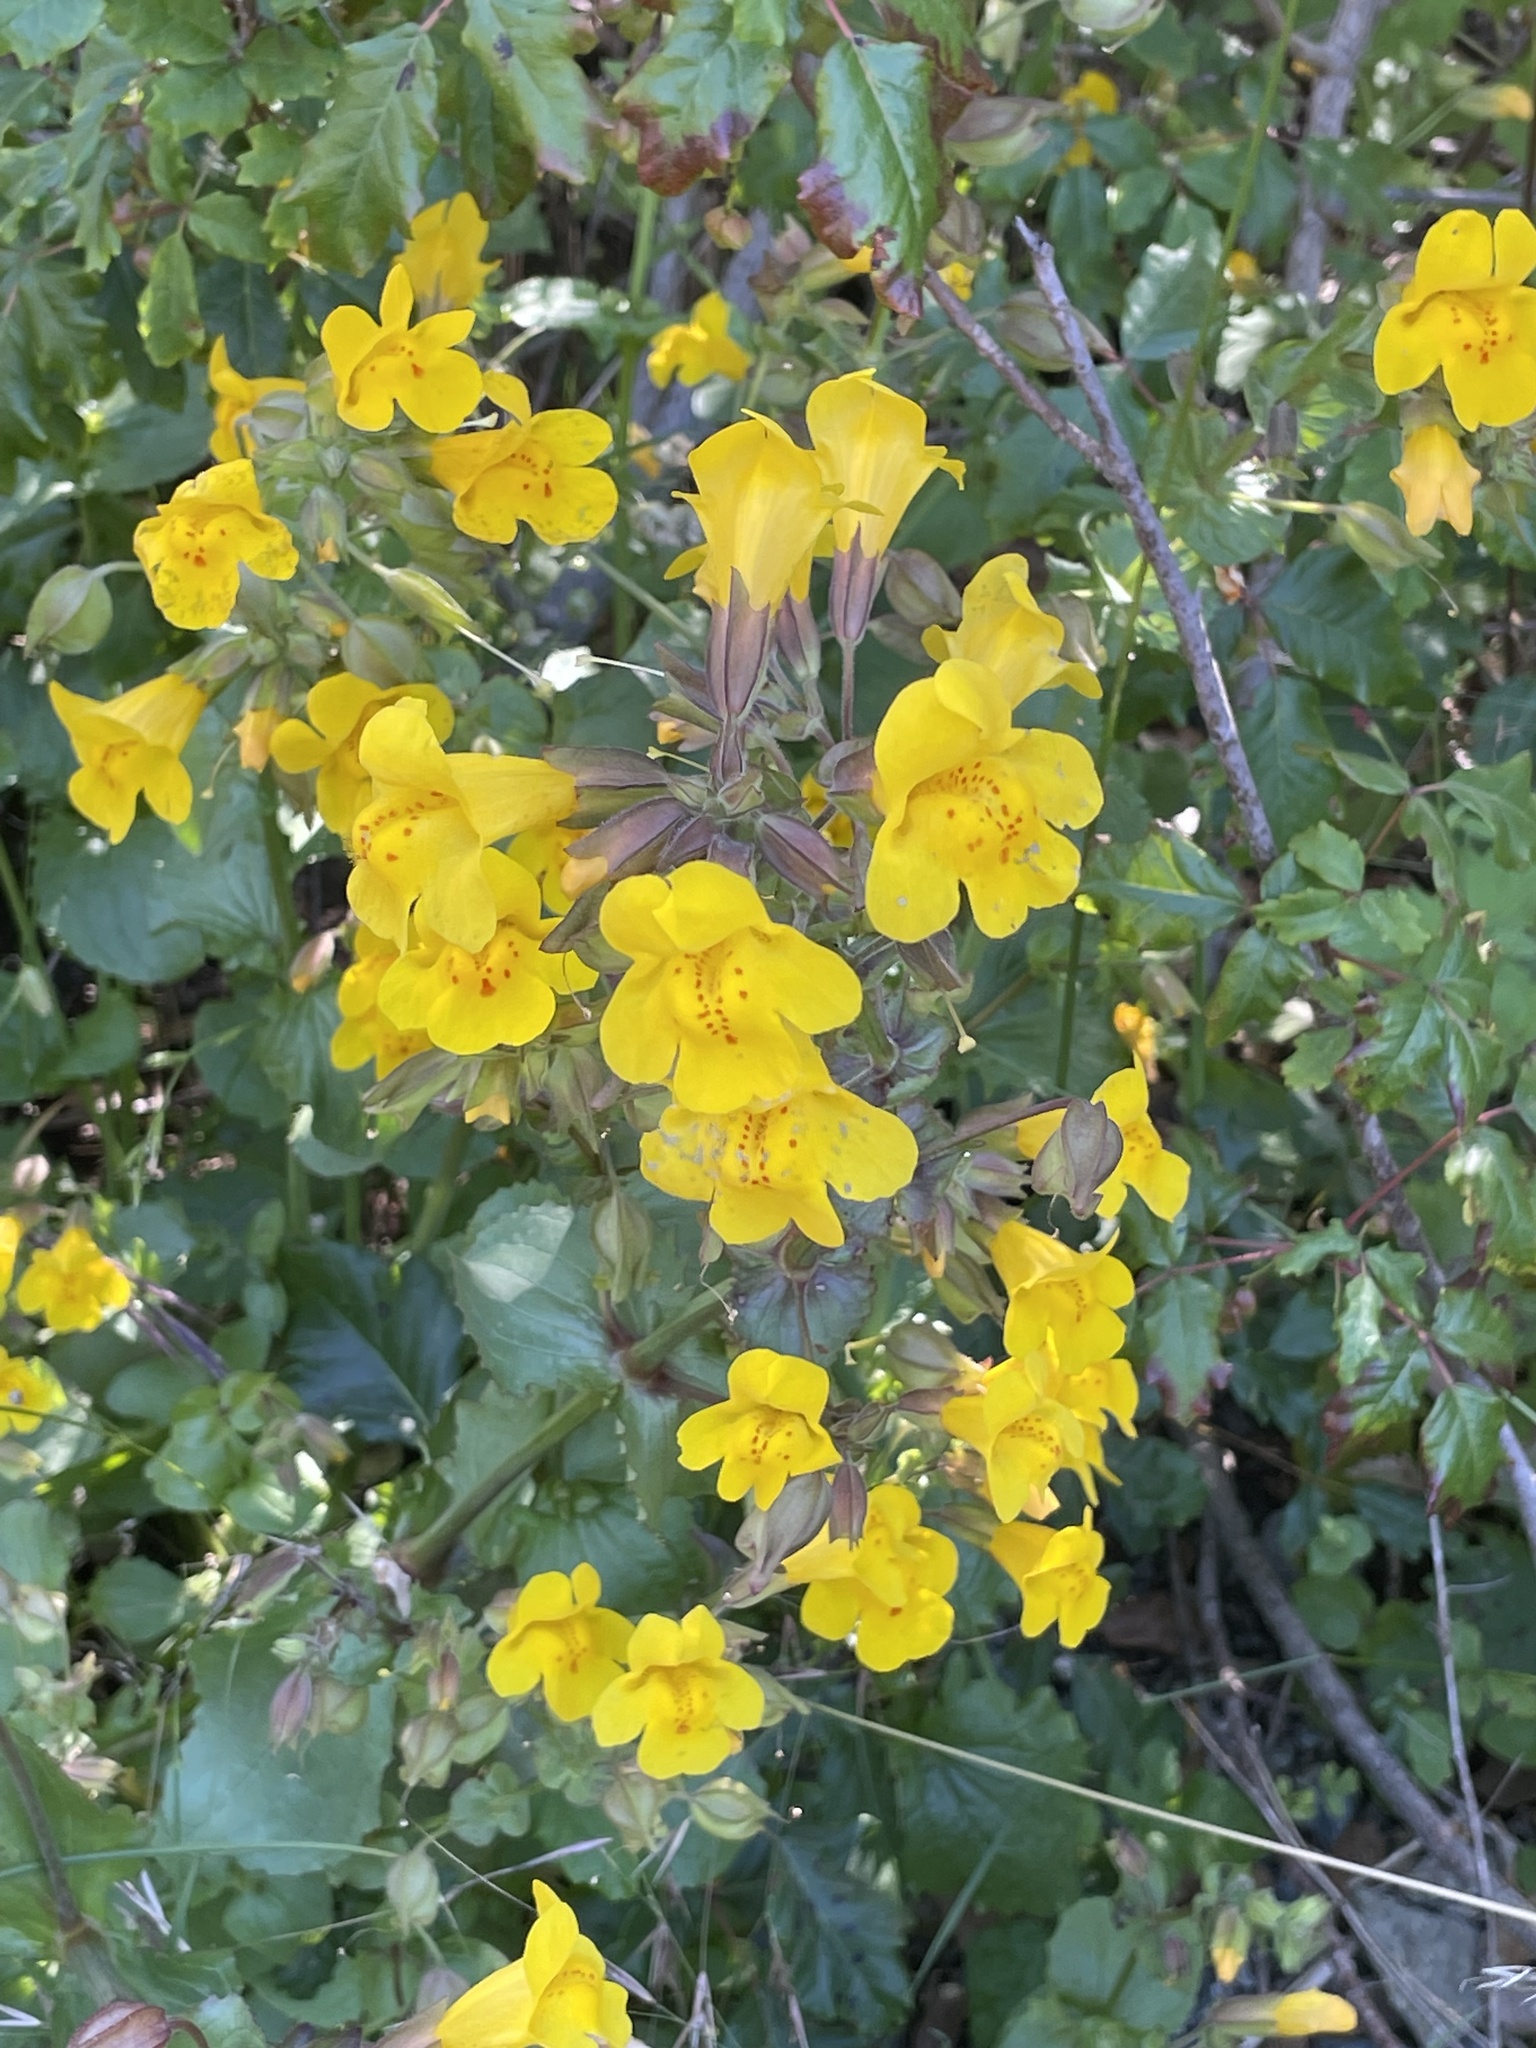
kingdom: Plantae
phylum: Tracheophyta
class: Magnoliopsida
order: Lamiales
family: Phrymaceae
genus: Erythranthe
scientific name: Erythranthe guttata
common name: Monkeyflower
